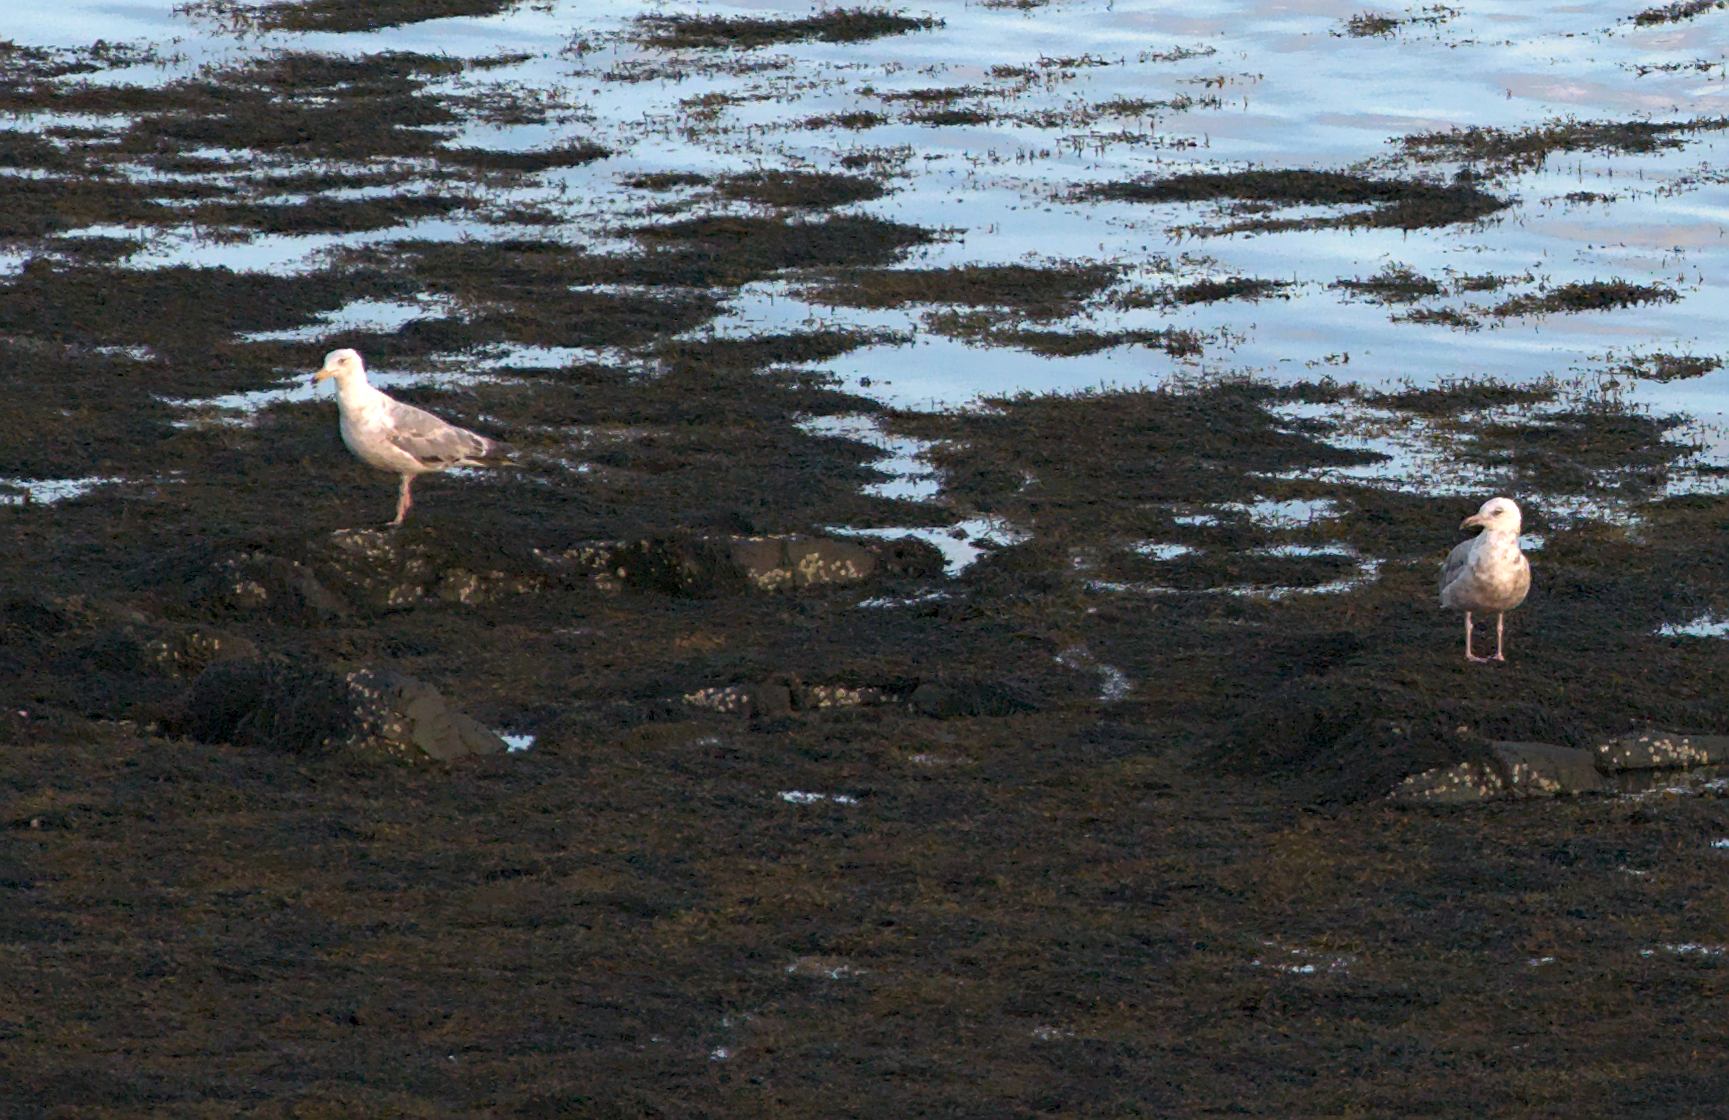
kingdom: Animalia
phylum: Chordata
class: Aves
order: Charadriiformes
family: Laridae
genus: Larus
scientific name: Larus
